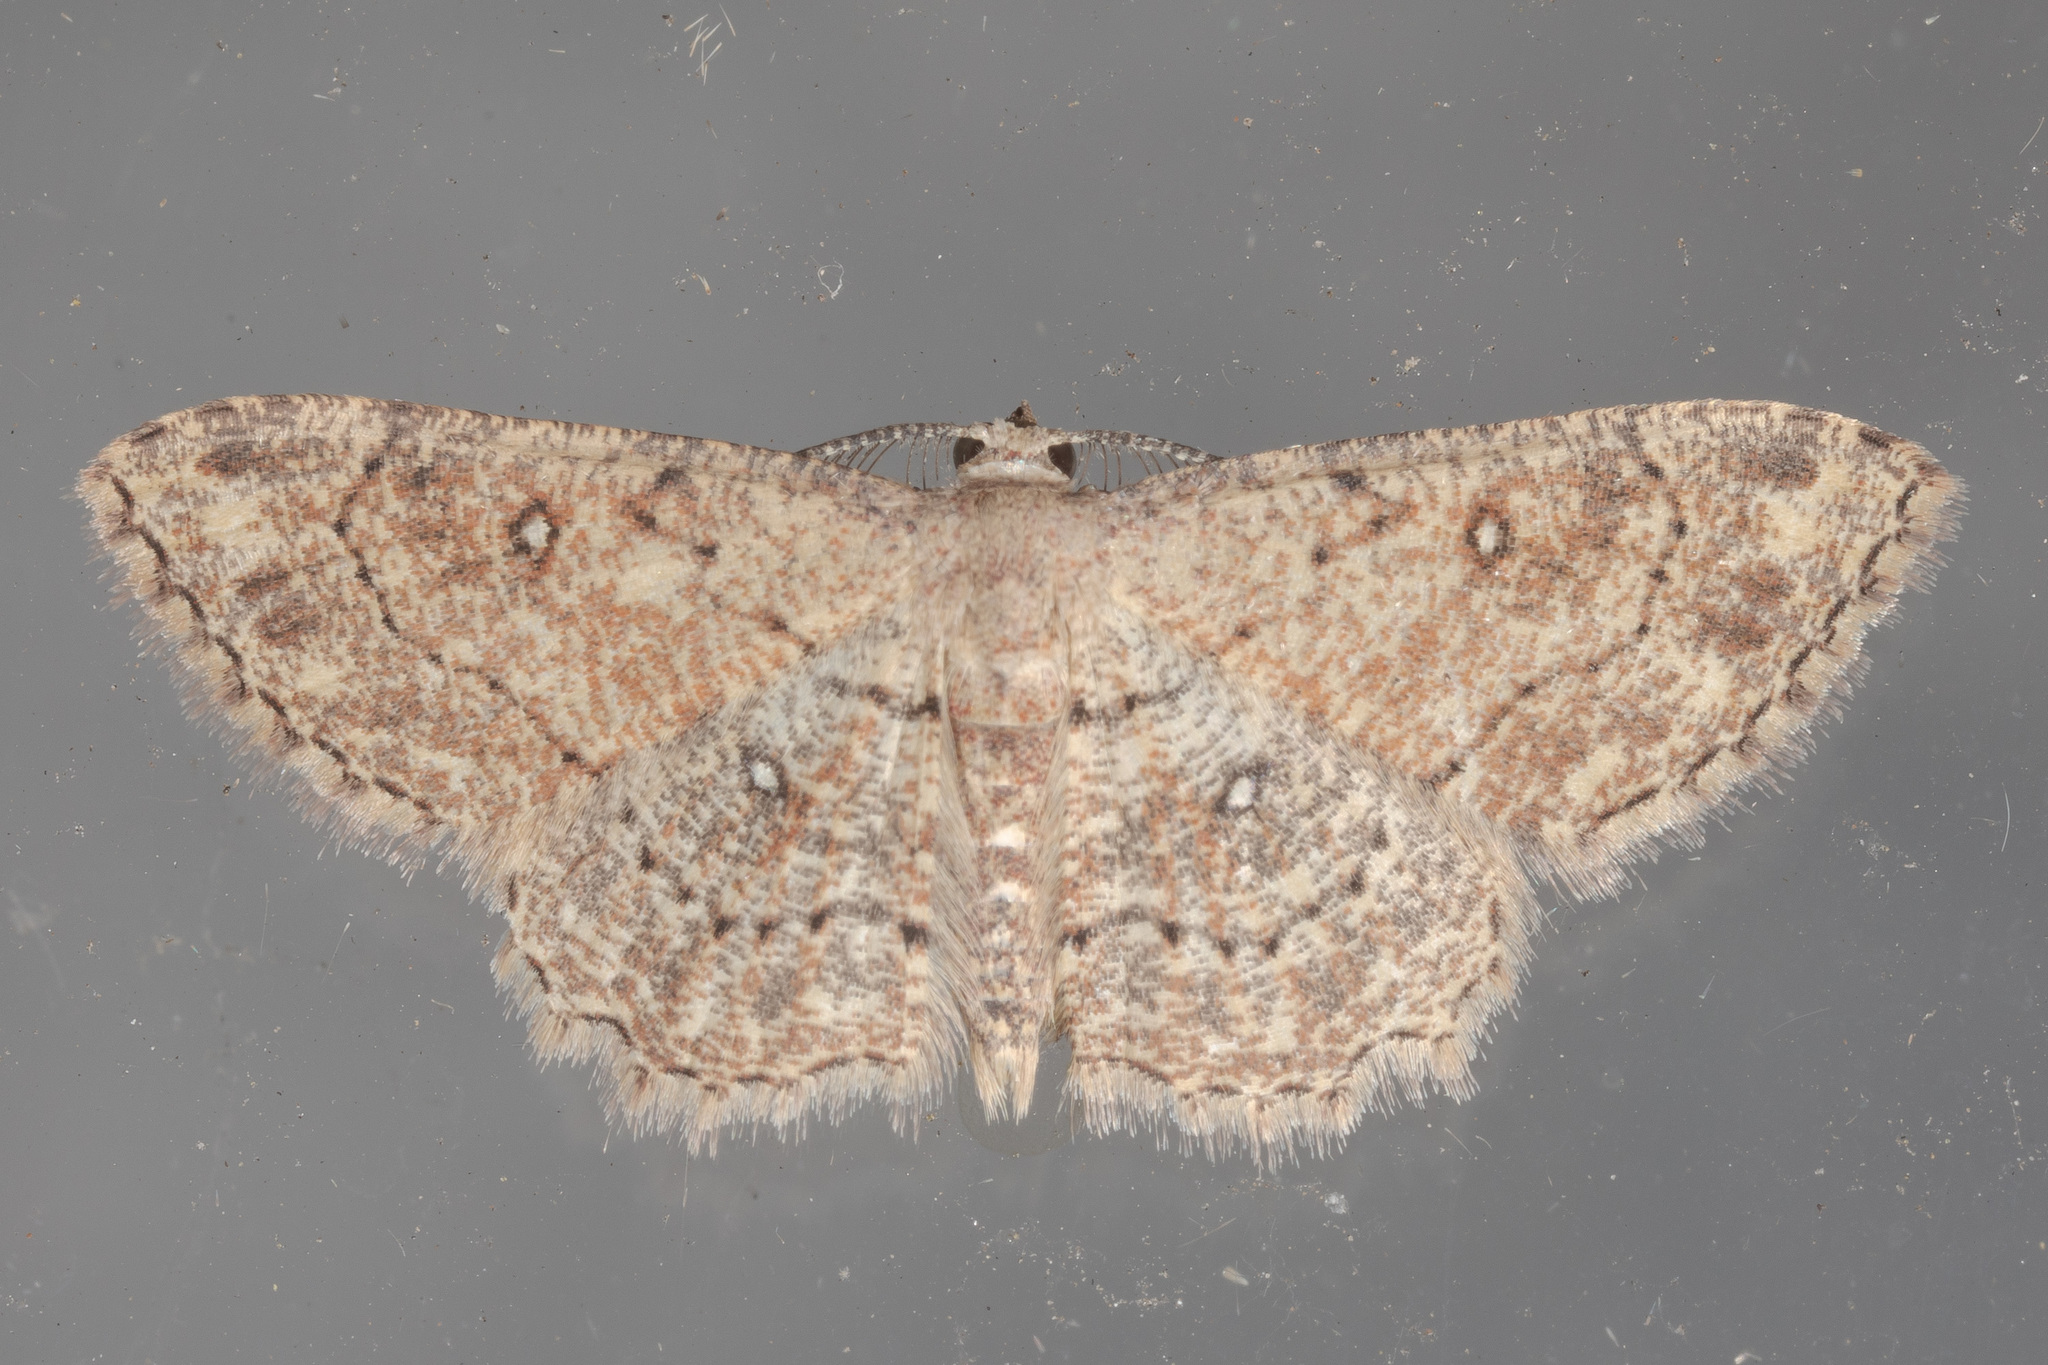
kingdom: Animalia
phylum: Arthropoda
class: Insecta
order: Lepidoptera
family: Geometridae
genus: Cyclophora
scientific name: Cyclophora nanaria
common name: Cankerworm
